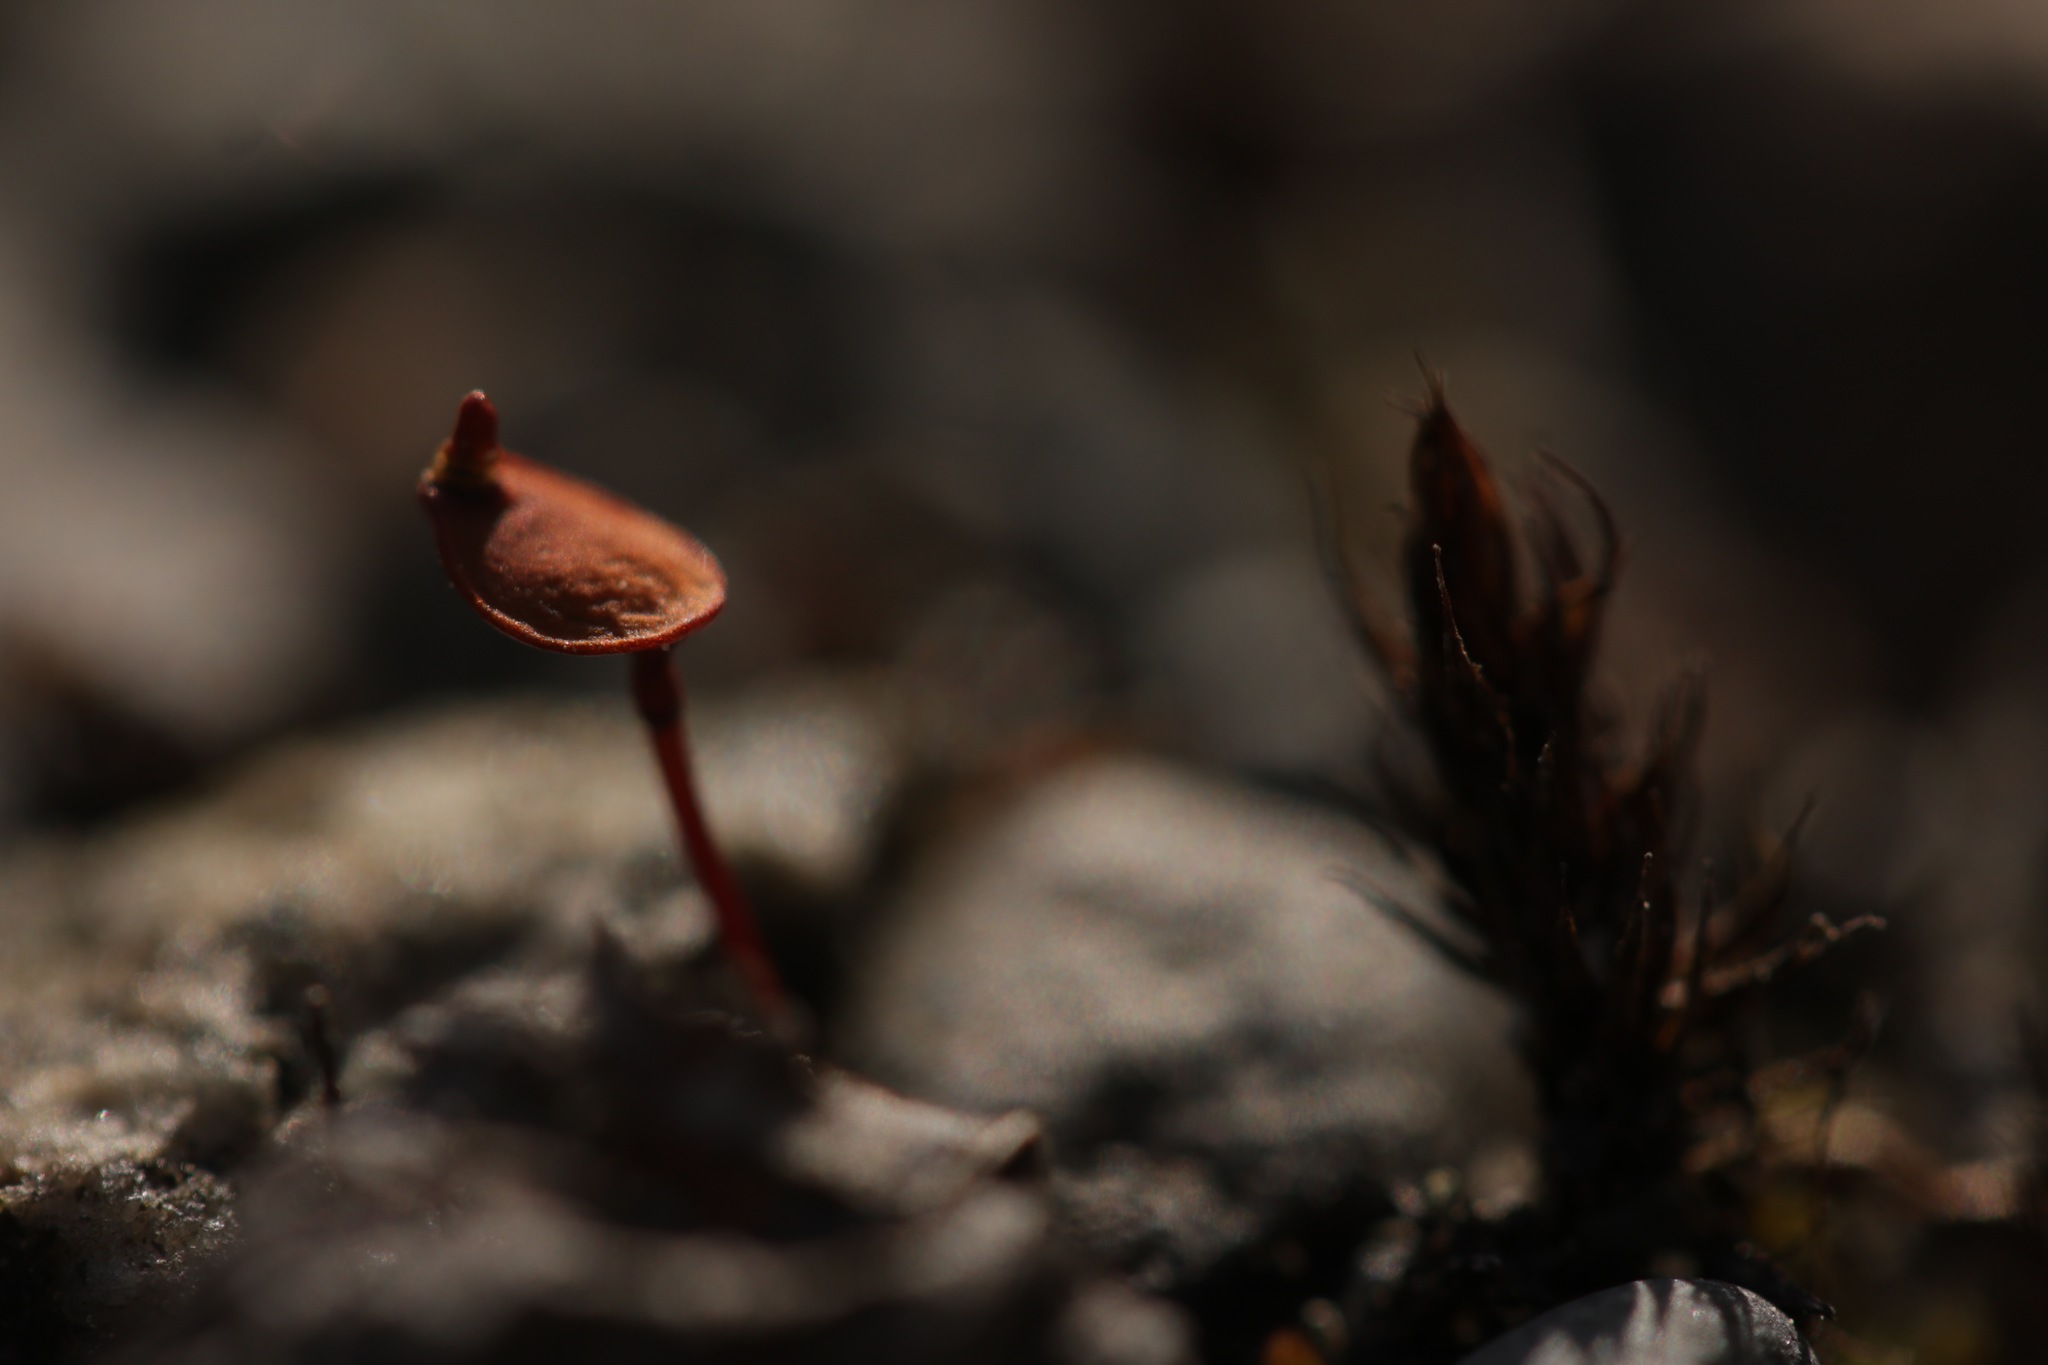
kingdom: Plantae
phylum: Bryophyta
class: Bryopsida
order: Buxbaumiales
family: Buxbaumiaceae
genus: Buxbaumia
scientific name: Buxbaumia aphylla
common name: Brown shield-moss
